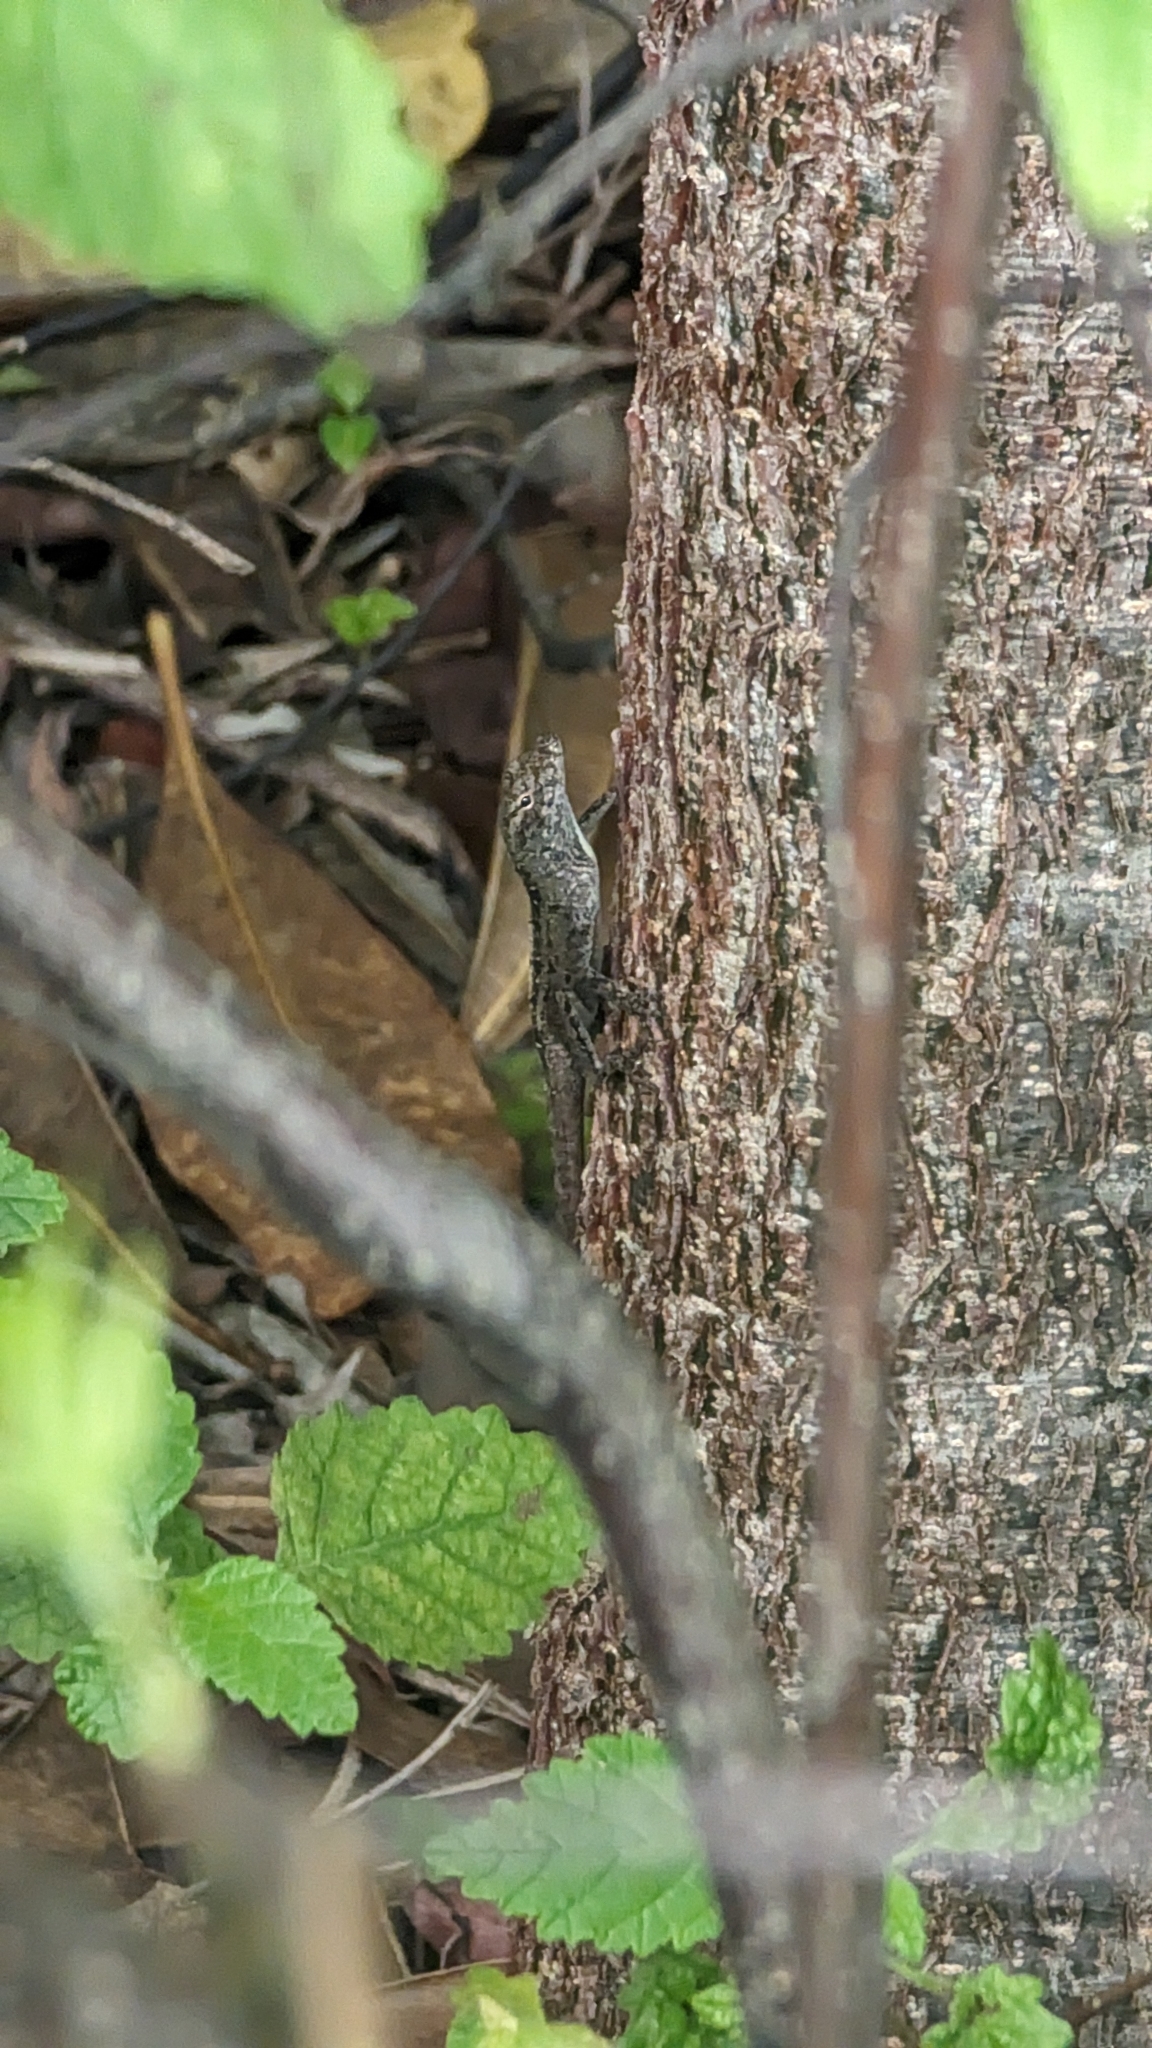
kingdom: Animalia
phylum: Chordata
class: Squamata
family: Dactyloidae
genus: Anolis
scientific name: Anolis sagrei
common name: Brown anole
